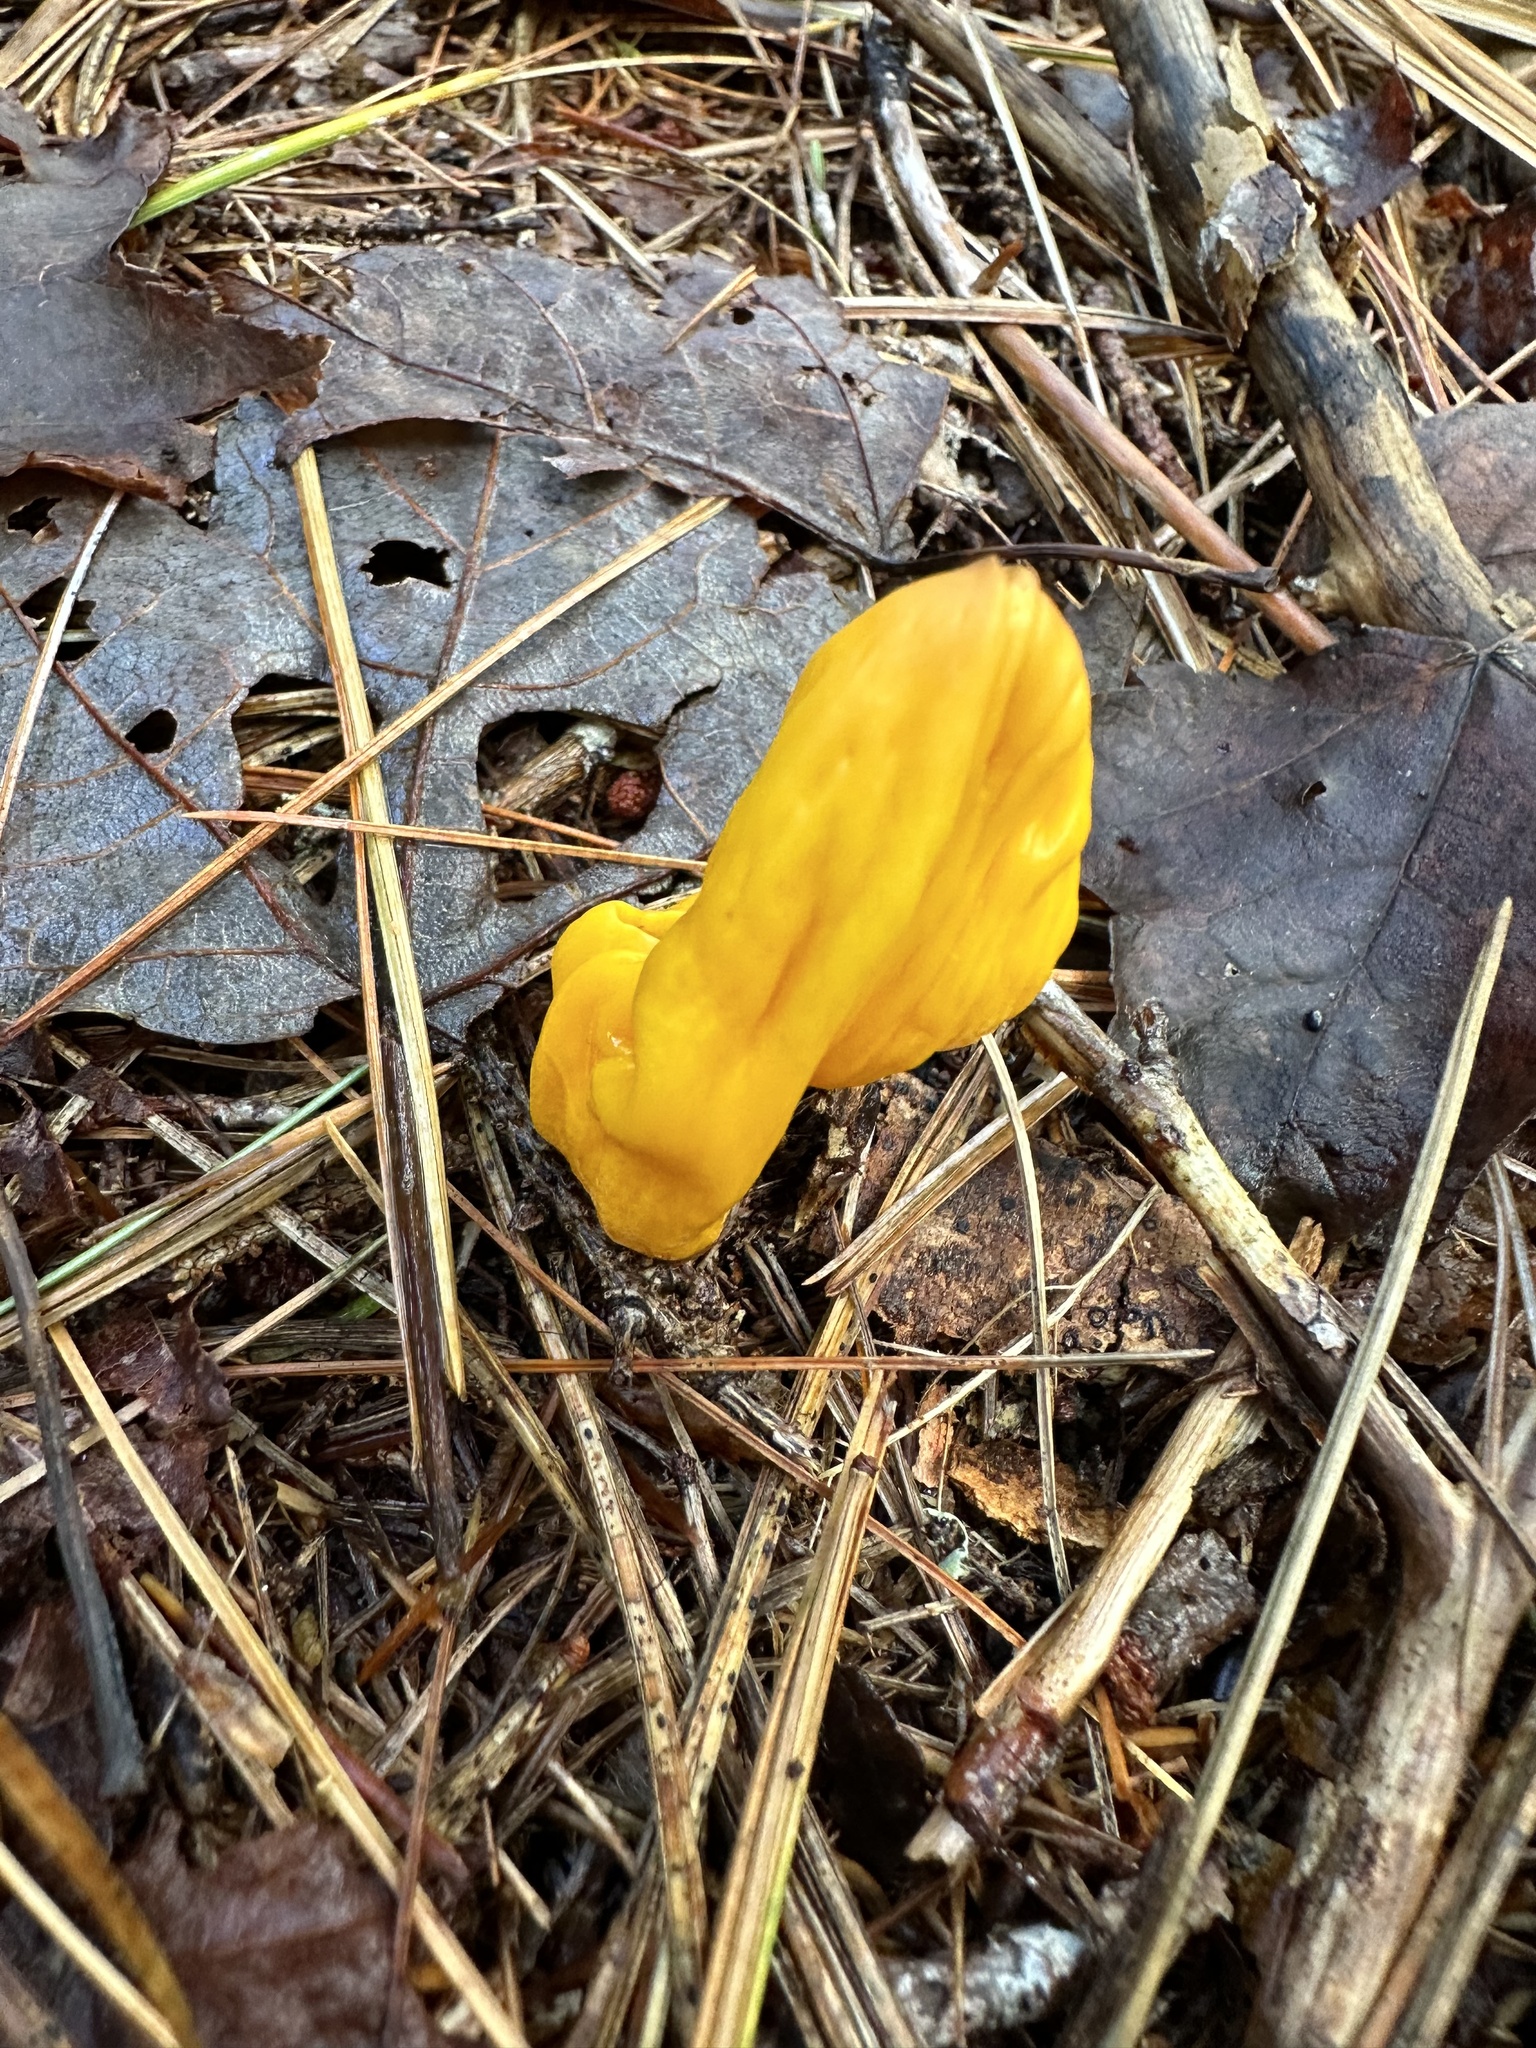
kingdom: Fungi
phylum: Ascomycota
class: Neolectomycetes
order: Neolectales
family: Neolectaceae
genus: Neolecta
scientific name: Neolecta irregularis
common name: Irregular earth tongue
